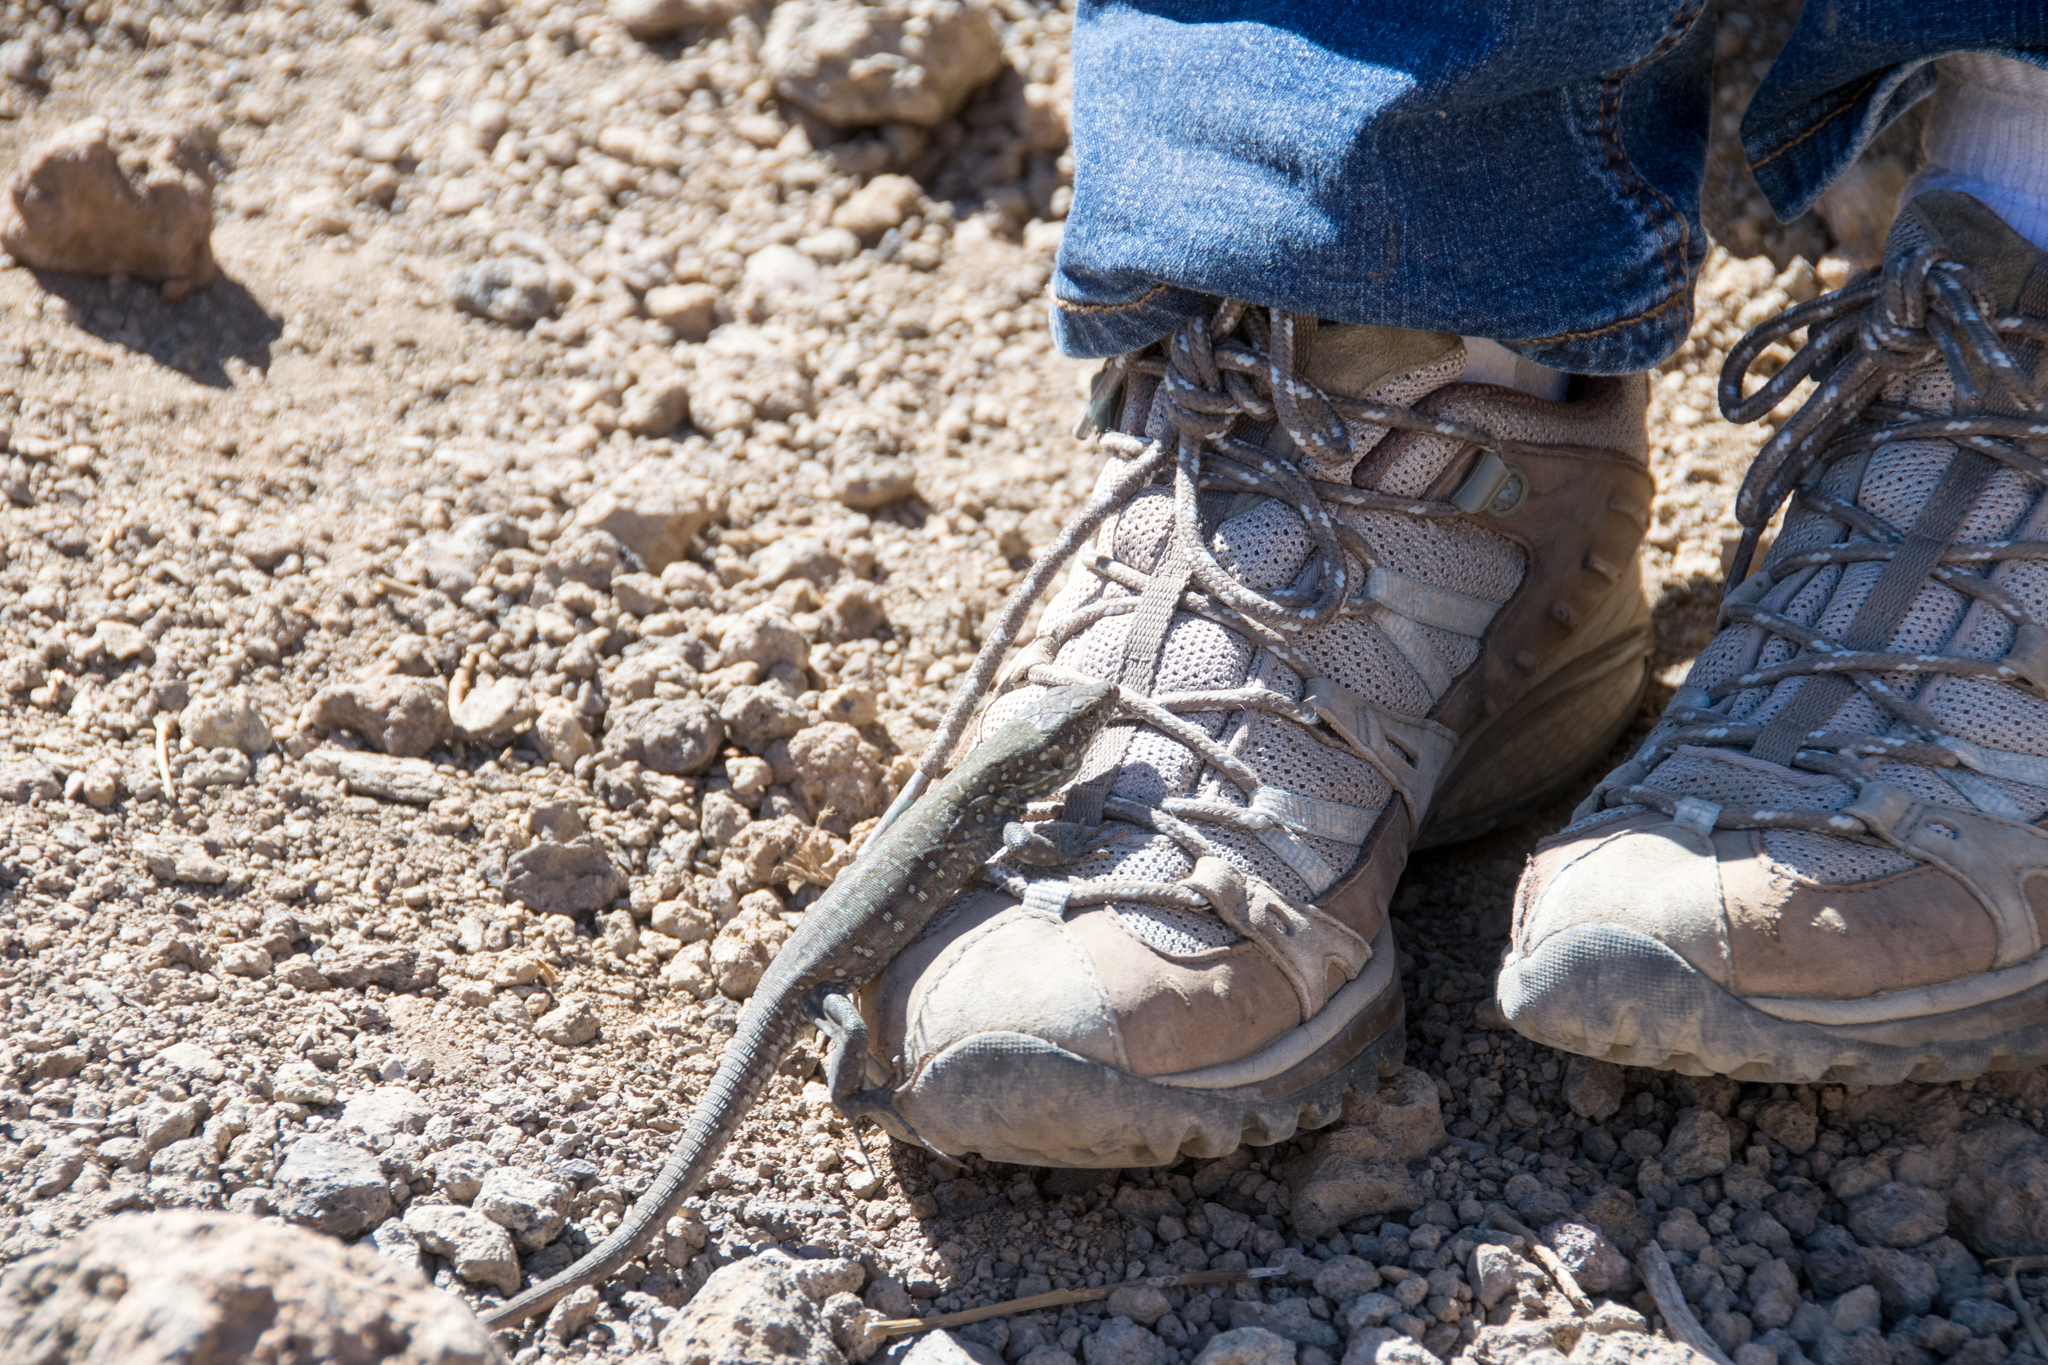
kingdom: Animalia
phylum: Chordata
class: Squamata
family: Lacertidae
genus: Gallotia
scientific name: Gallotia galloti
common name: Gallot's lizard
